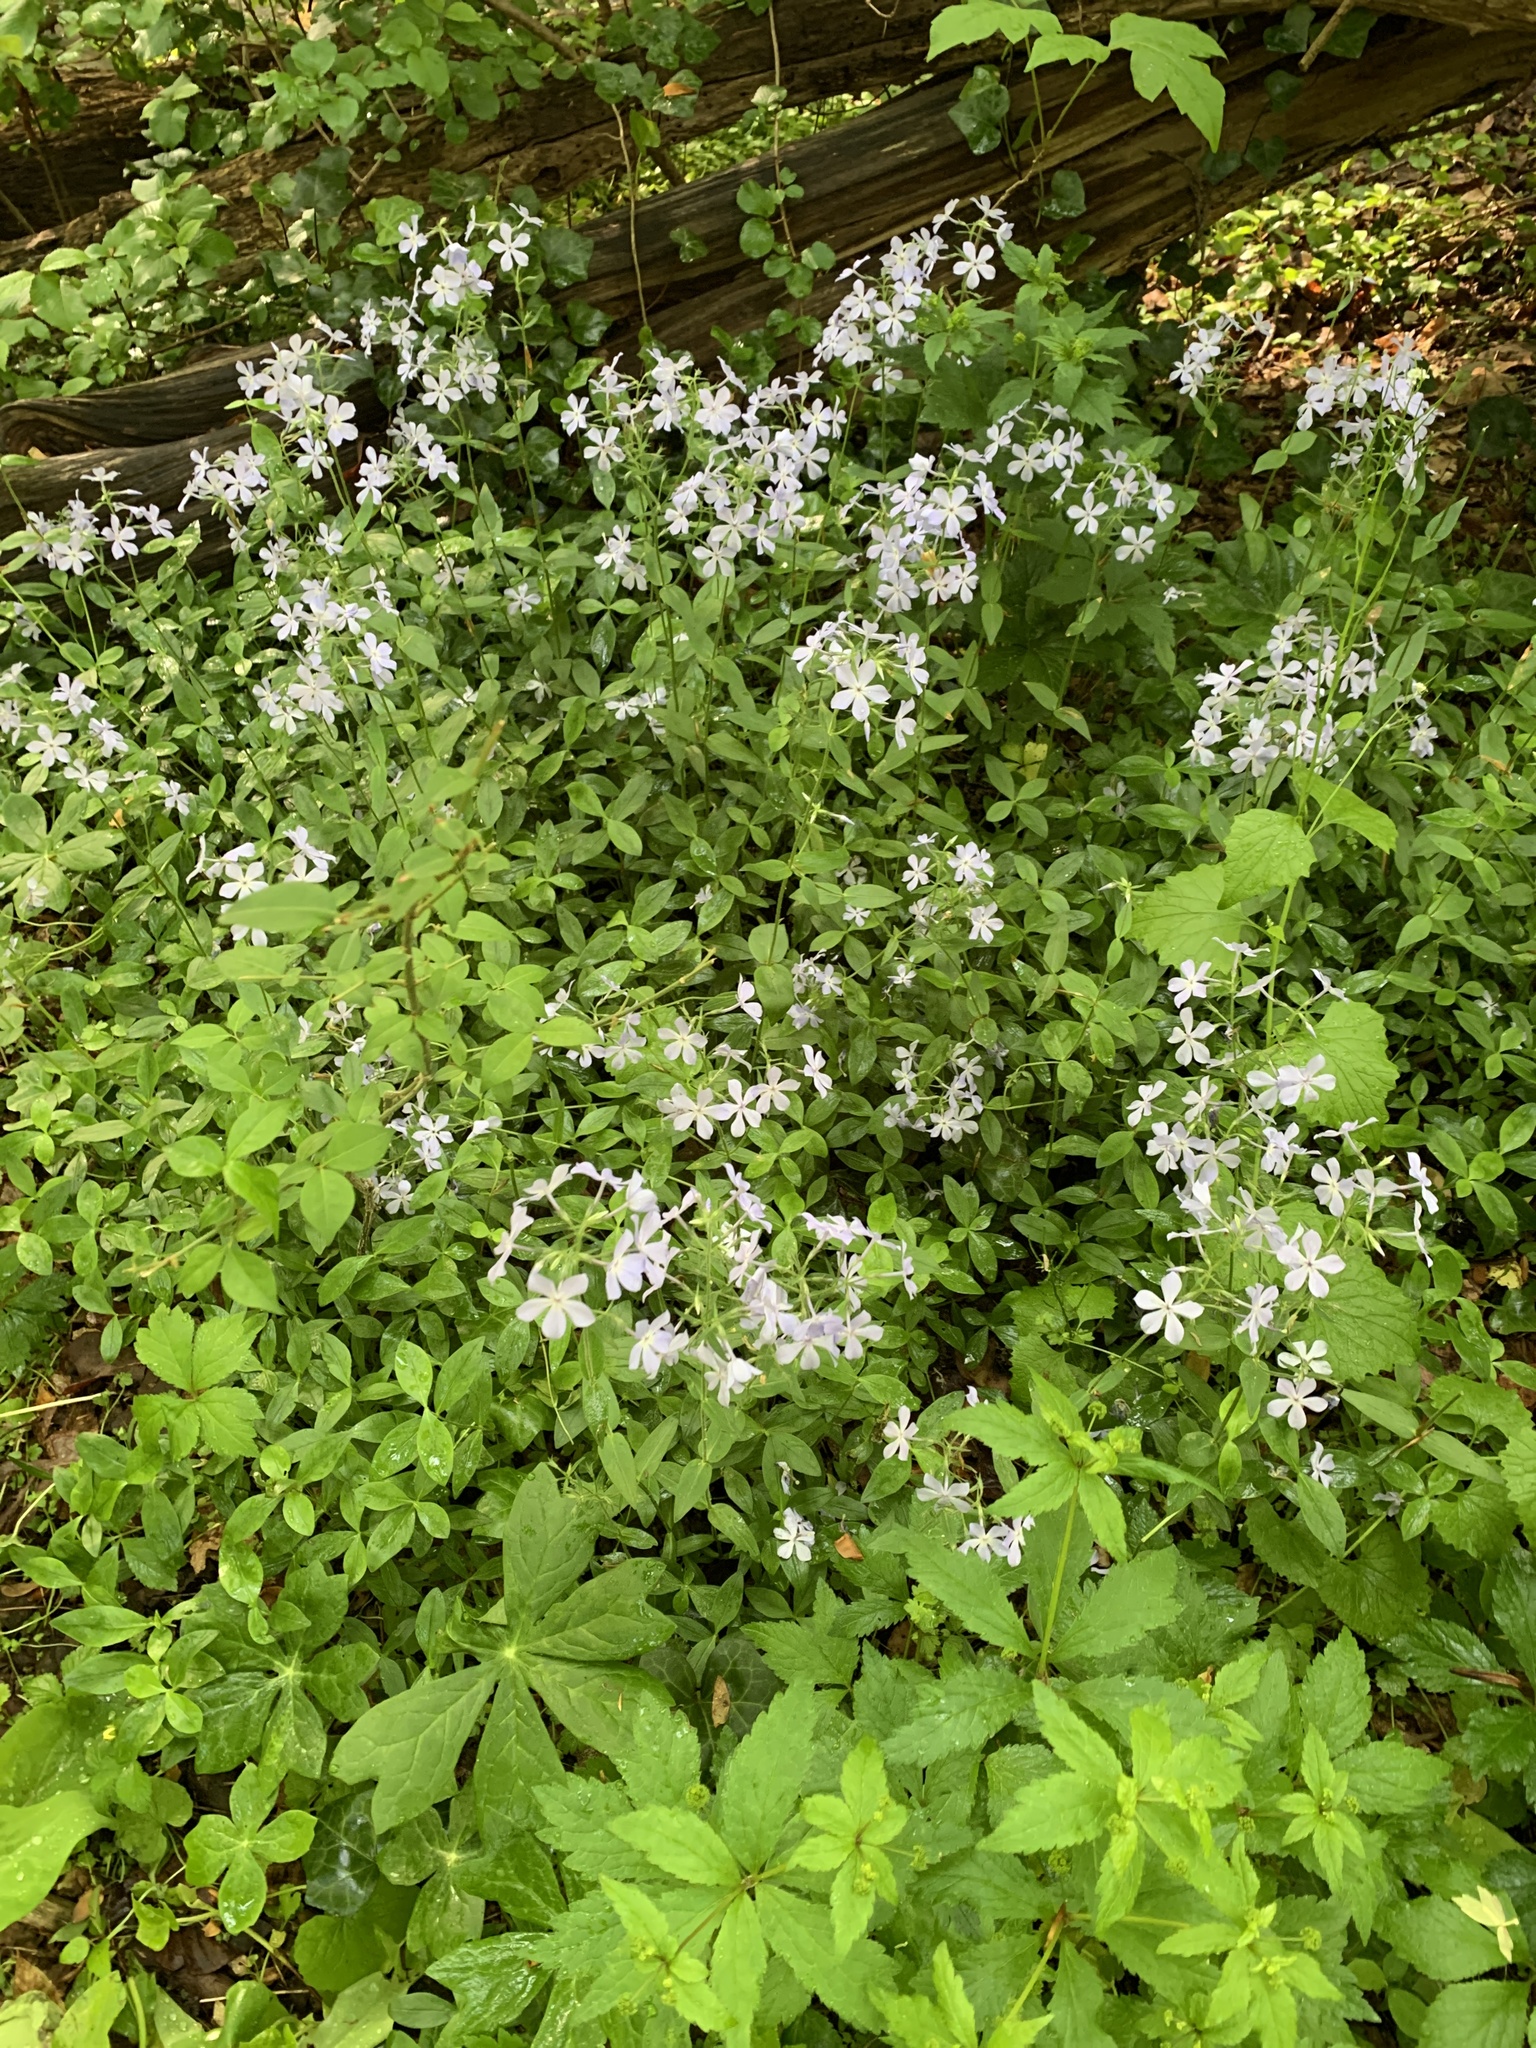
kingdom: Plantae
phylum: Tracheophyta
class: Magnoliopsida
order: Ericales
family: Polemoniaceae
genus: Phlox
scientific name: Phlox divaricata
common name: Blue phlox
